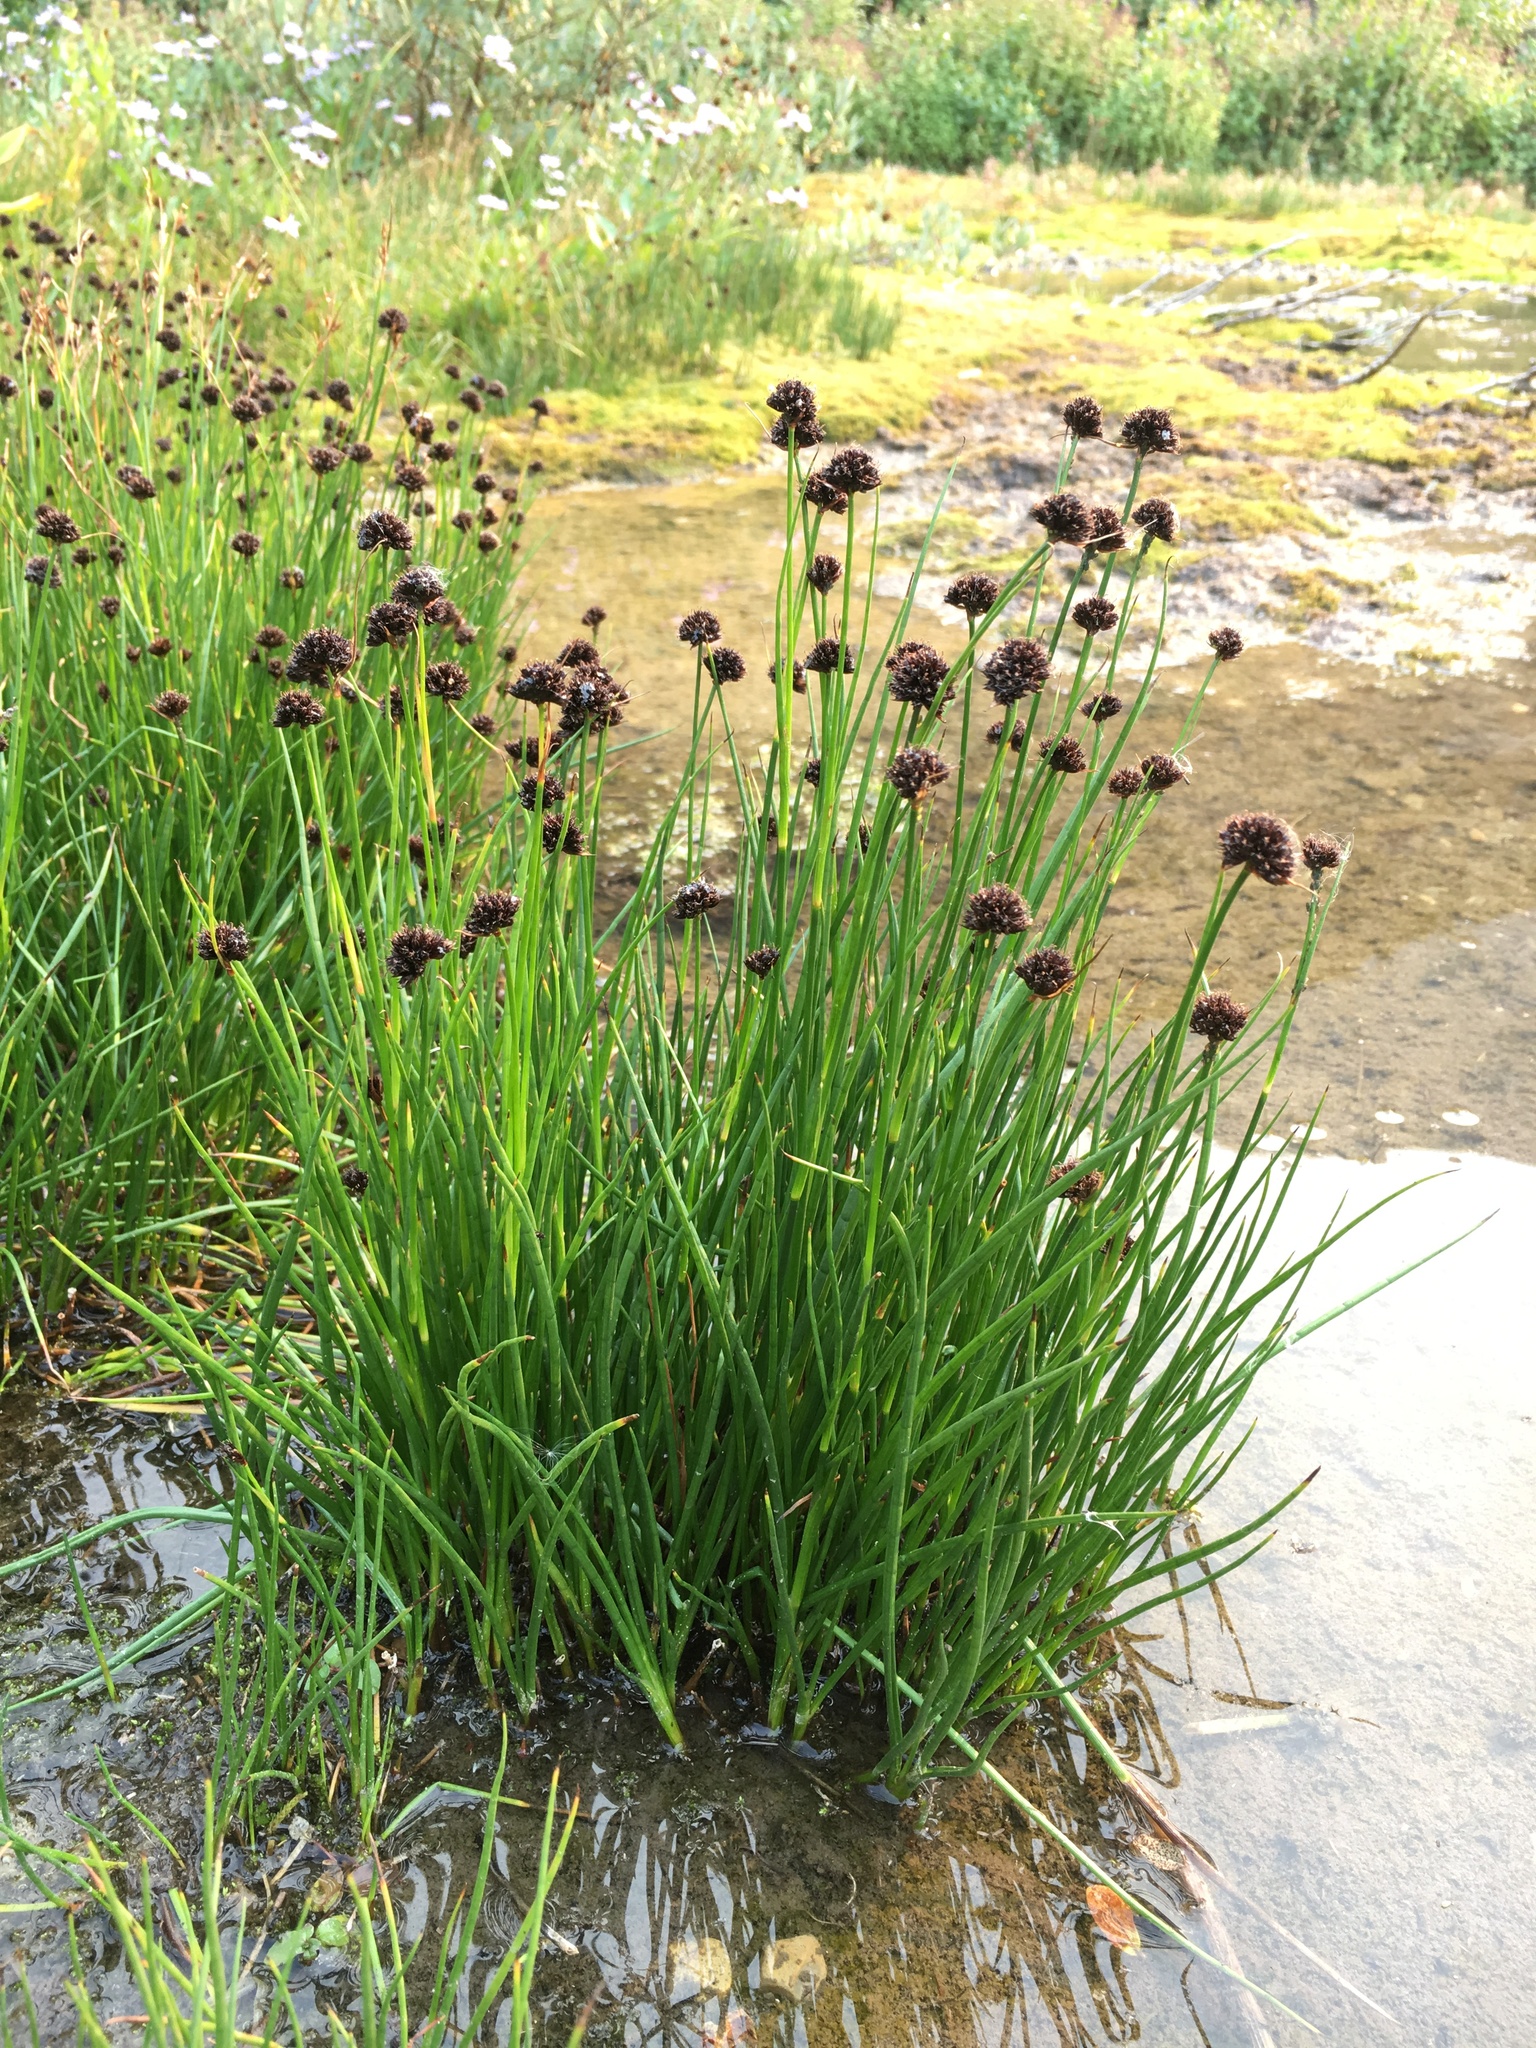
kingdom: Plantae
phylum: Tracheophyta
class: Liliopsida
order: Poales
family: Juncaceae
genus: Juncus
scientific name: Juncus mertensianus
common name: Merten's rush
